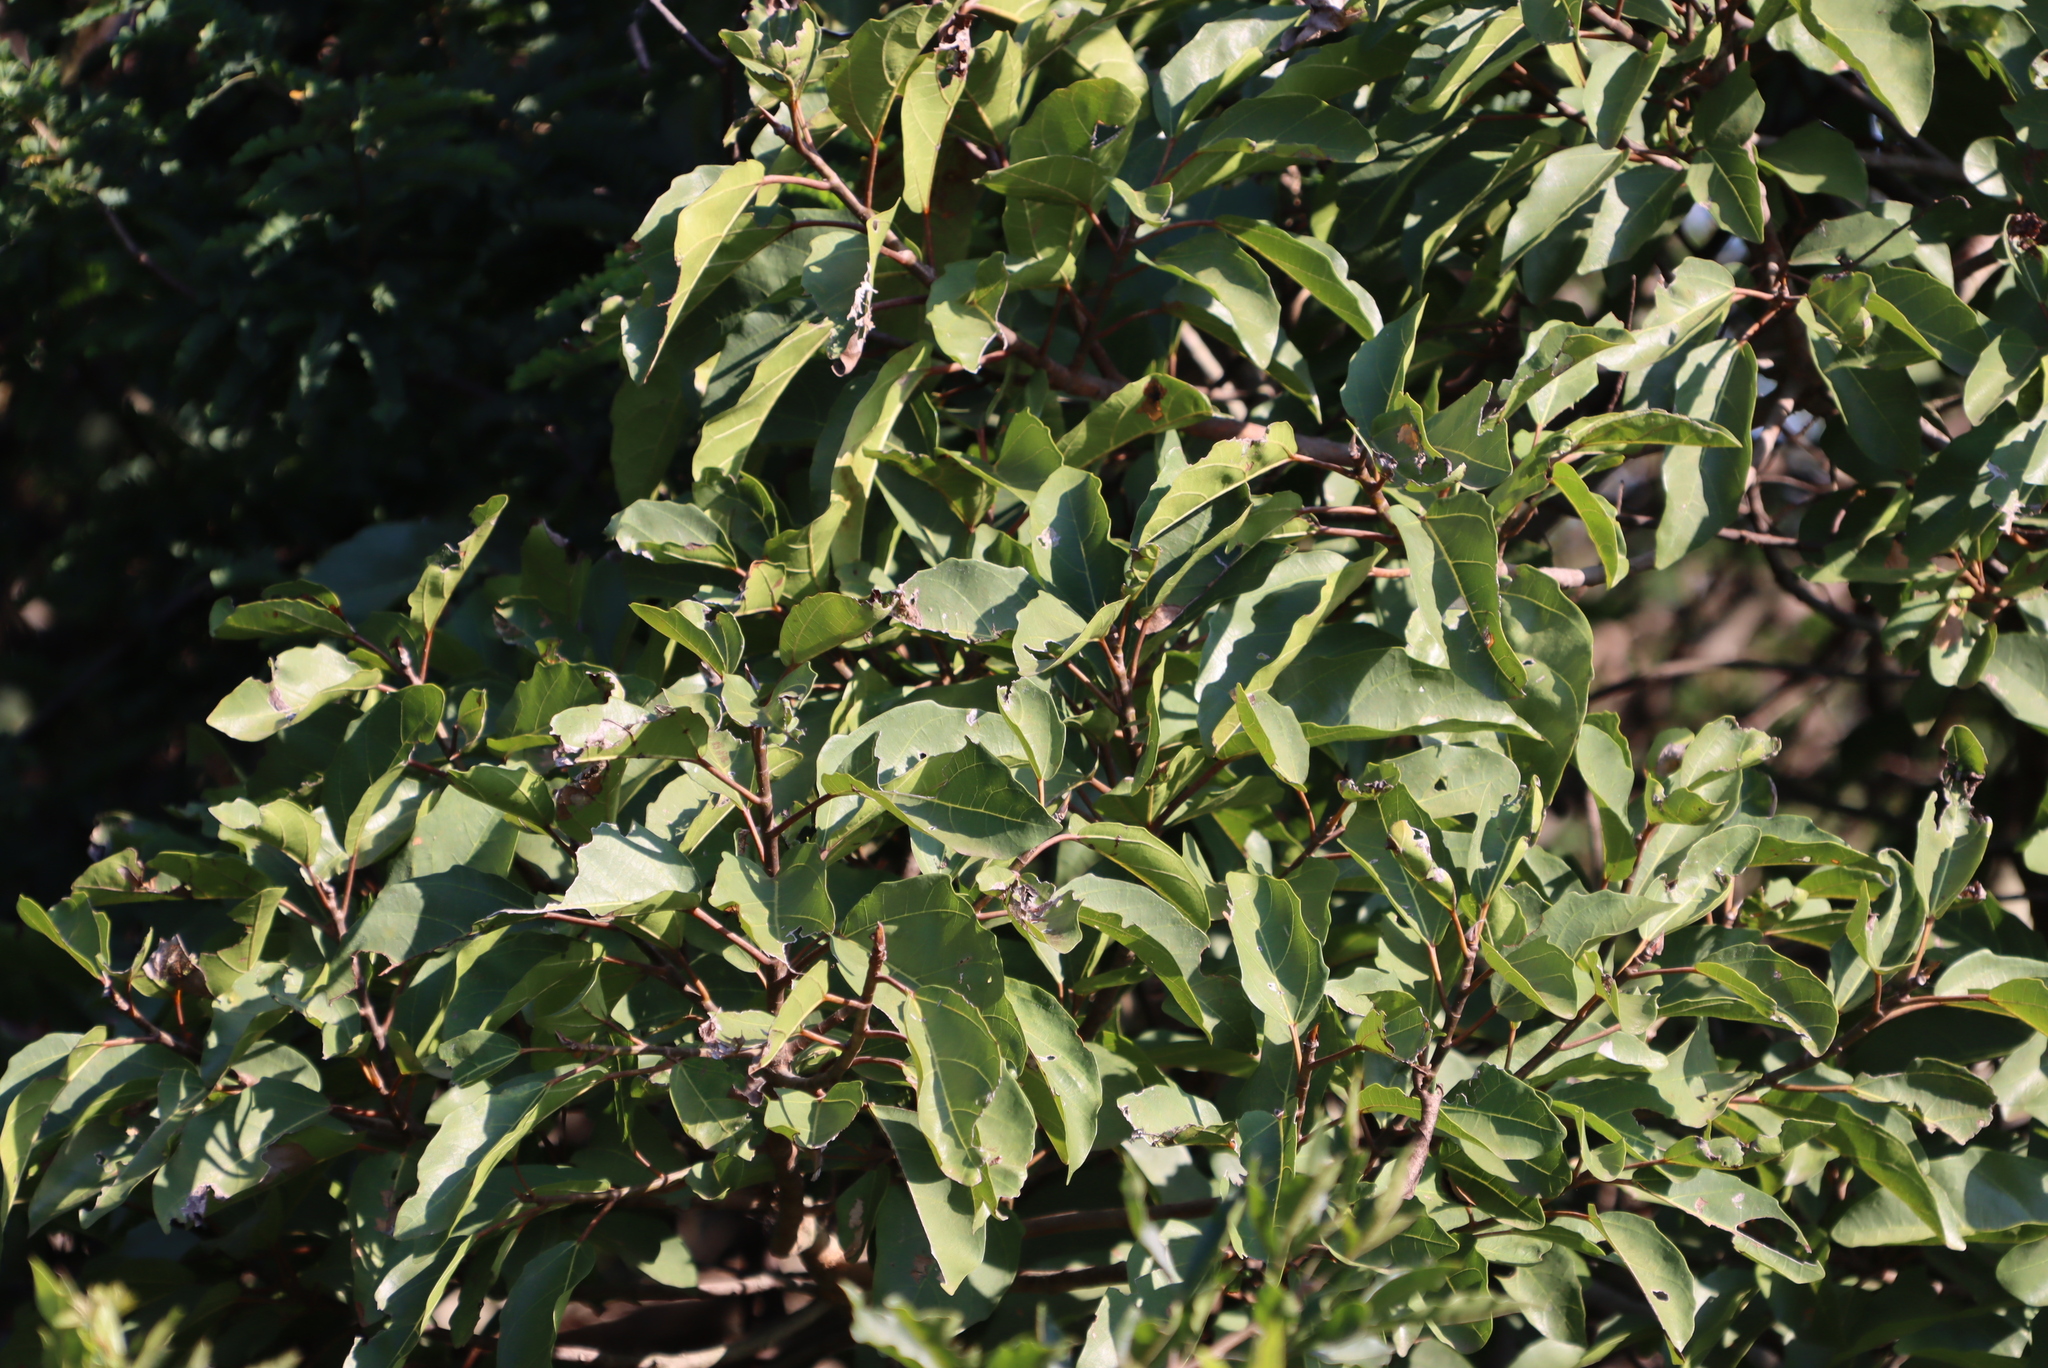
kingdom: Plantae
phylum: Tracheophyta
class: Magnoliopsida
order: Rosales
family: Moraceae
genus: Ficus
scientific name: Ficus sur
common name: Cape fig
